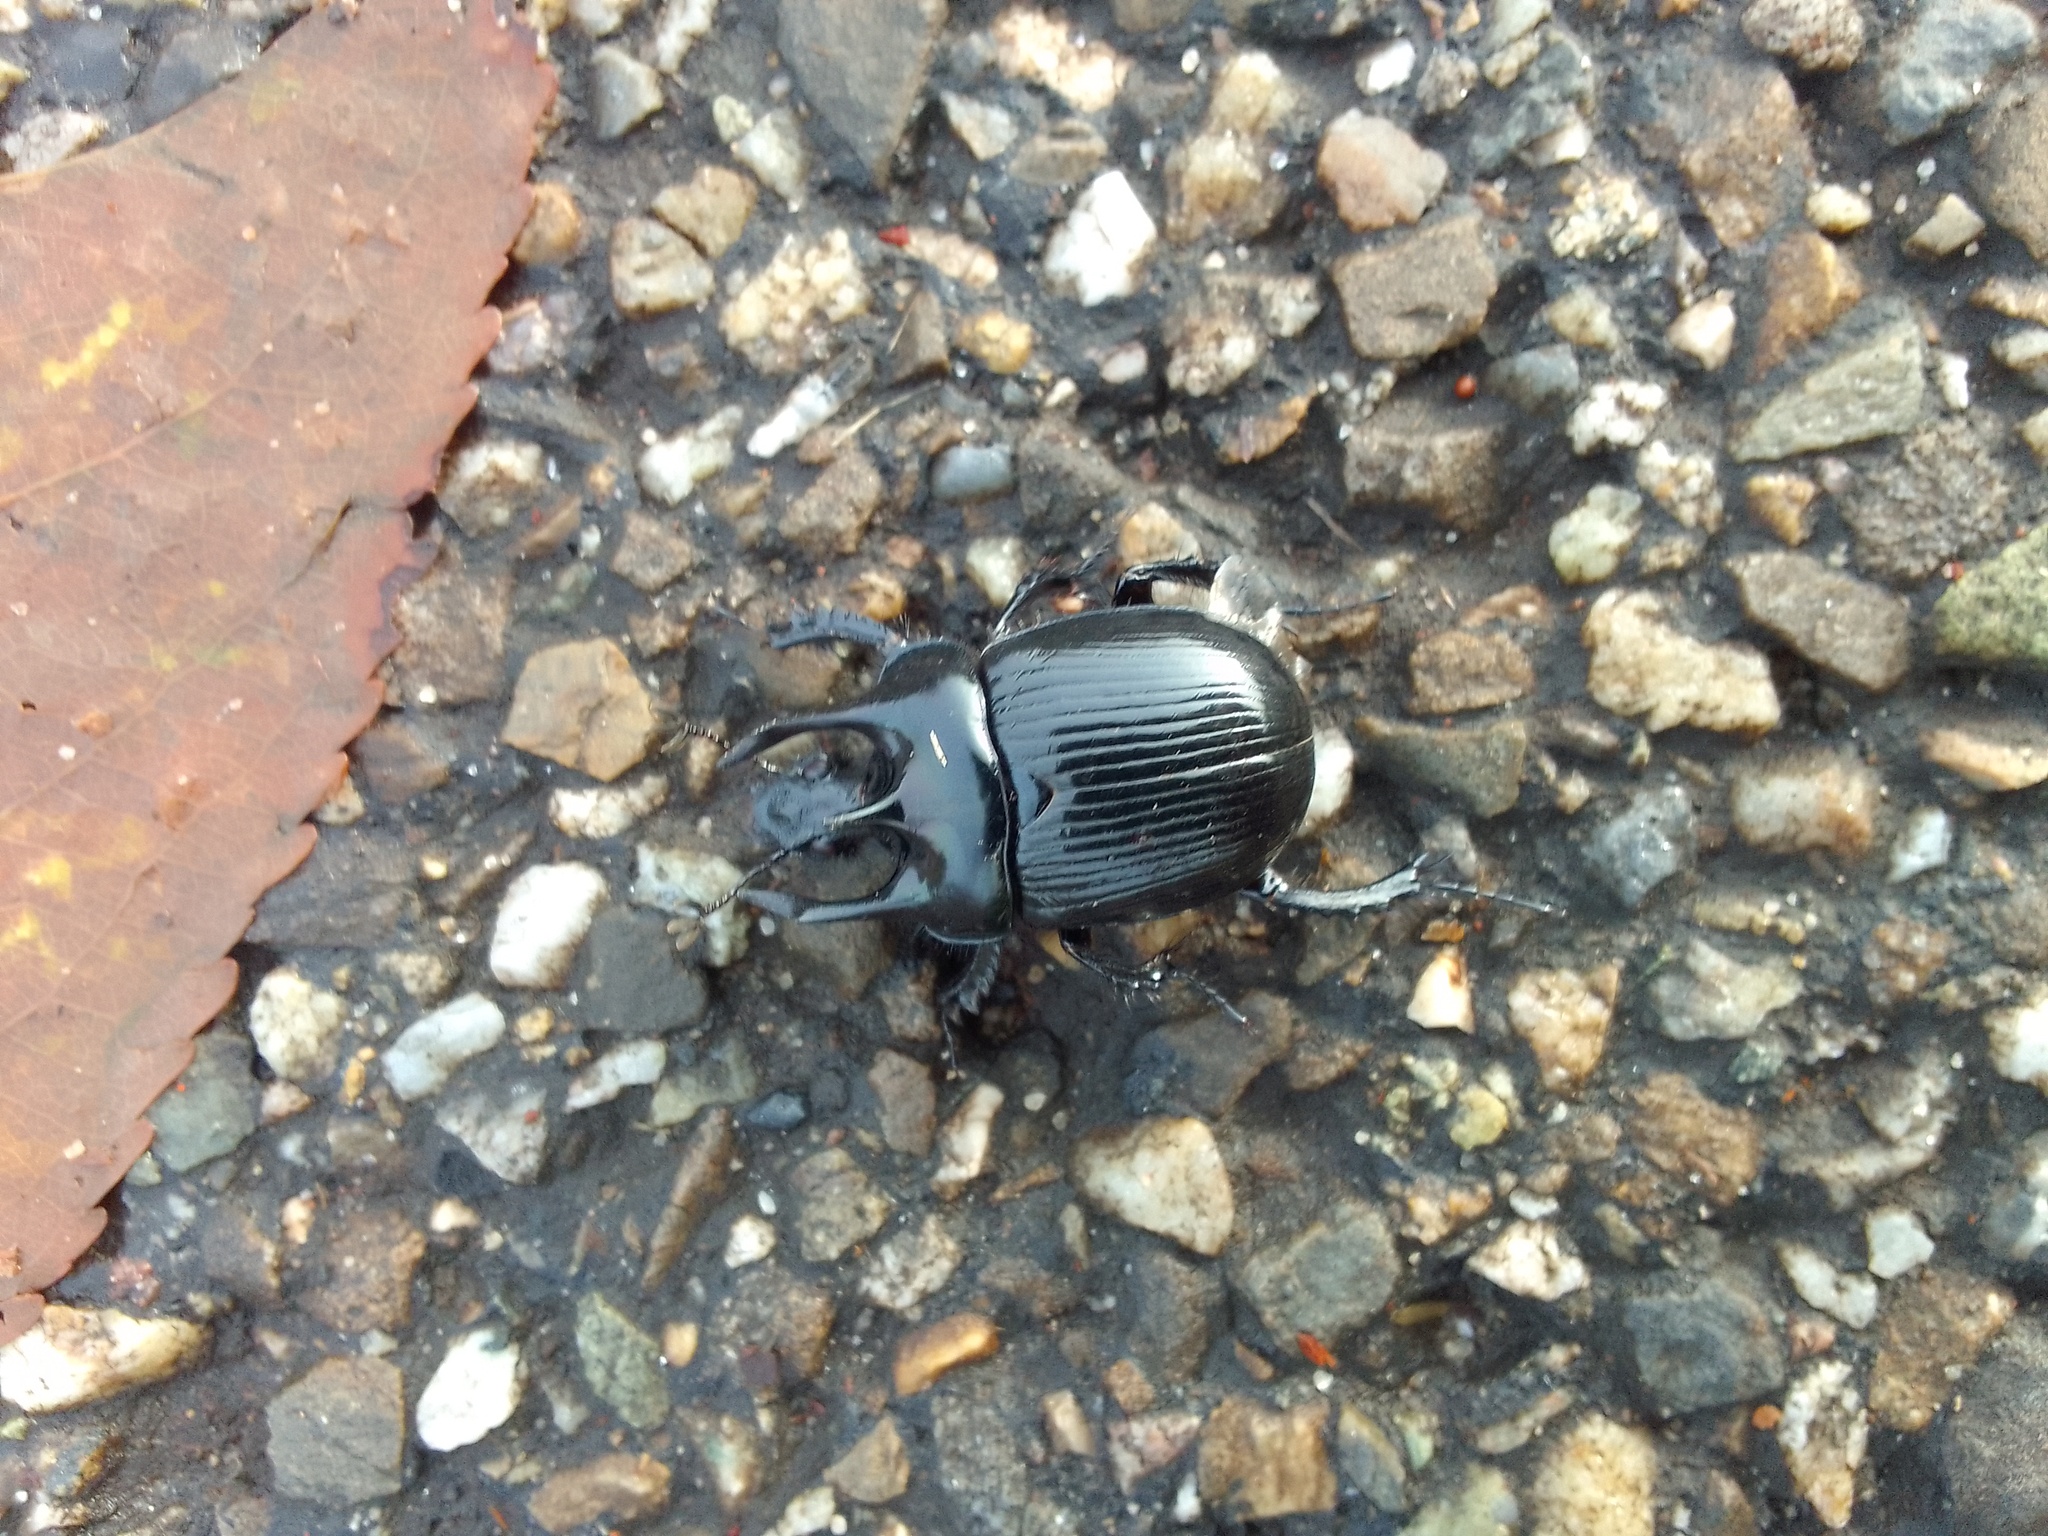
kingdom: Animalia
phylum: Arthropoda
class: Insecta
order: Coleoptera
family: Geotrupidae
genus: Typhaeus
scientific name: Typhaeus typhoeus
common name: Minotaur beetle
